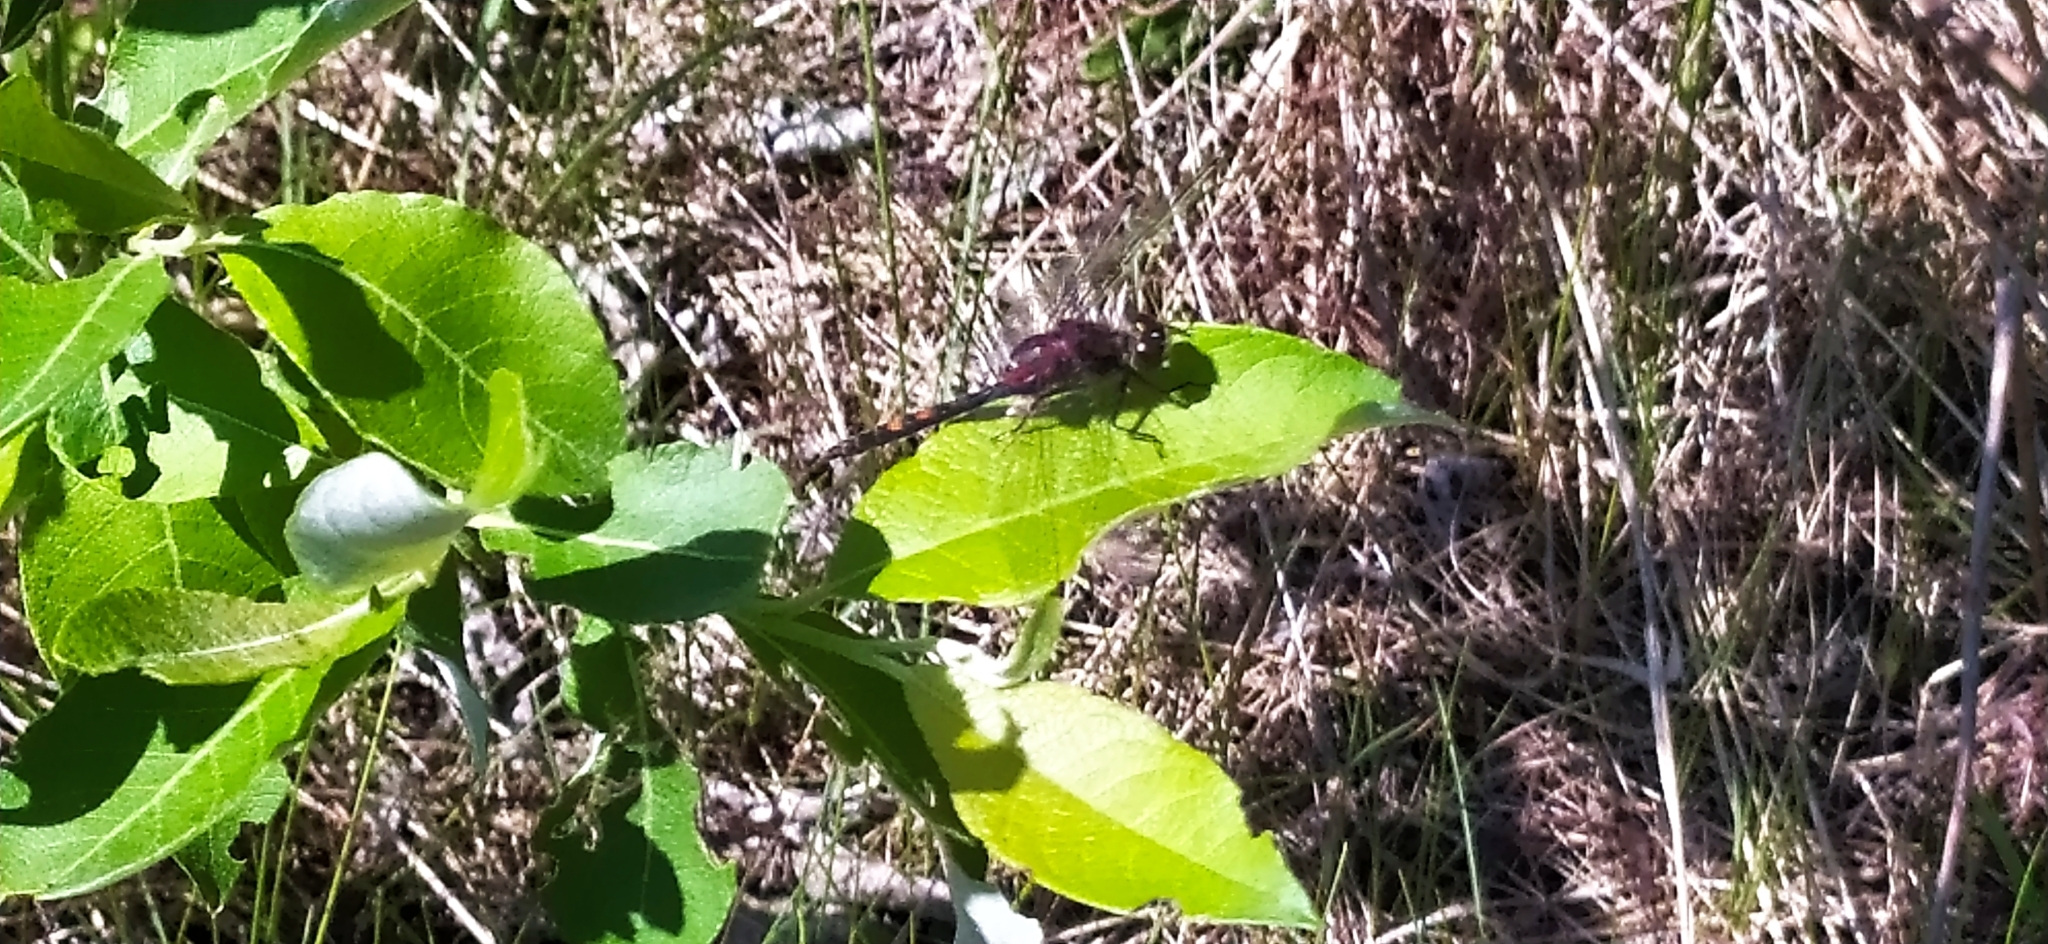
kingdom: Animalia
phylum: Arthropoda
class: Insecta
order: Odonata
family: Libellulidae
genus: Leucorrhinia
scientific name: Leucorrhinia dubia
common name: White-faced darter
